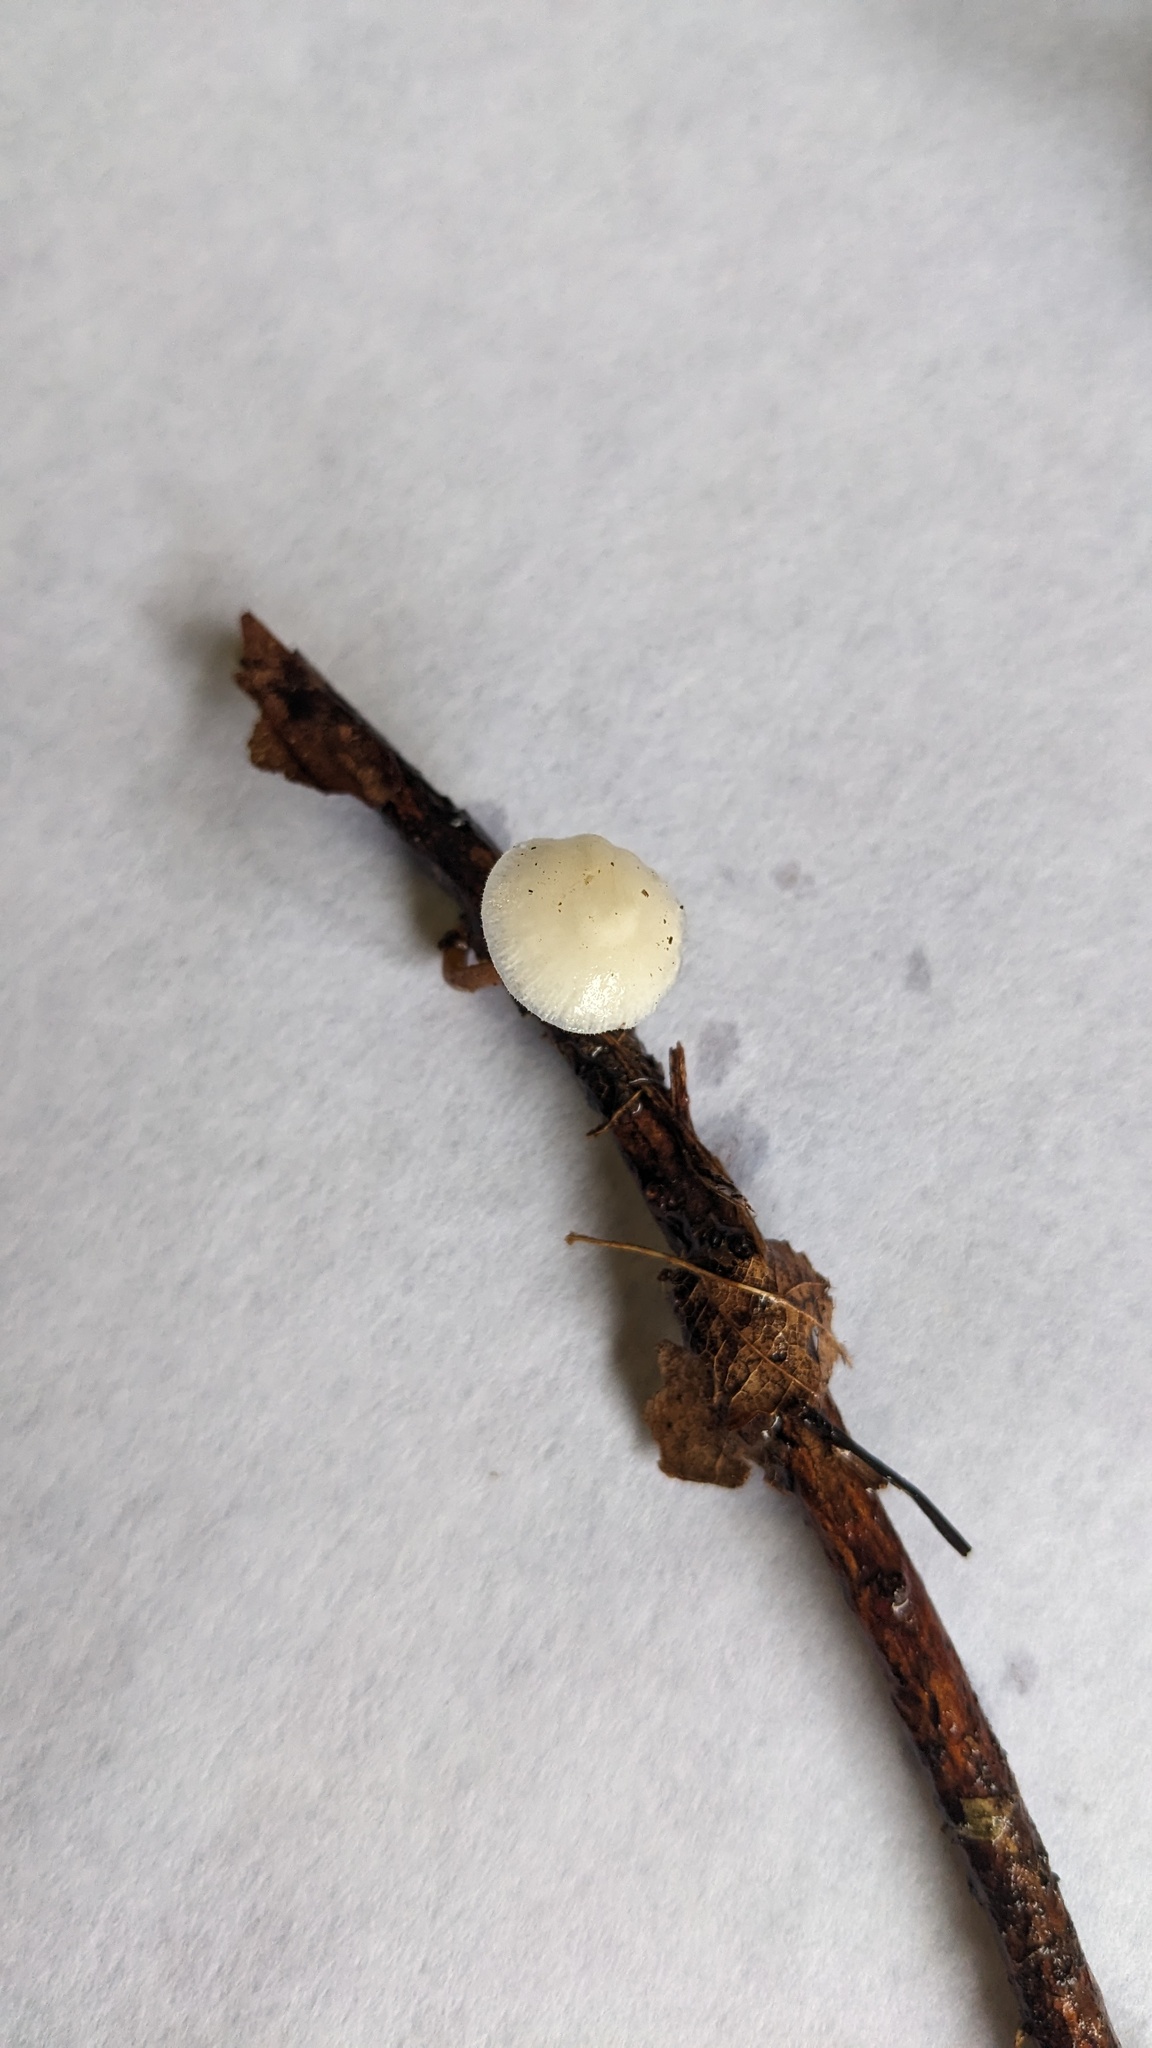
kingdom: Fungi
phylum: Basidiomycota
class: Agaricomycetes
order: Agaricales
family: Physalacriaceae
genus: Strobilurus
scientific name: Strobilurus ohshimae
